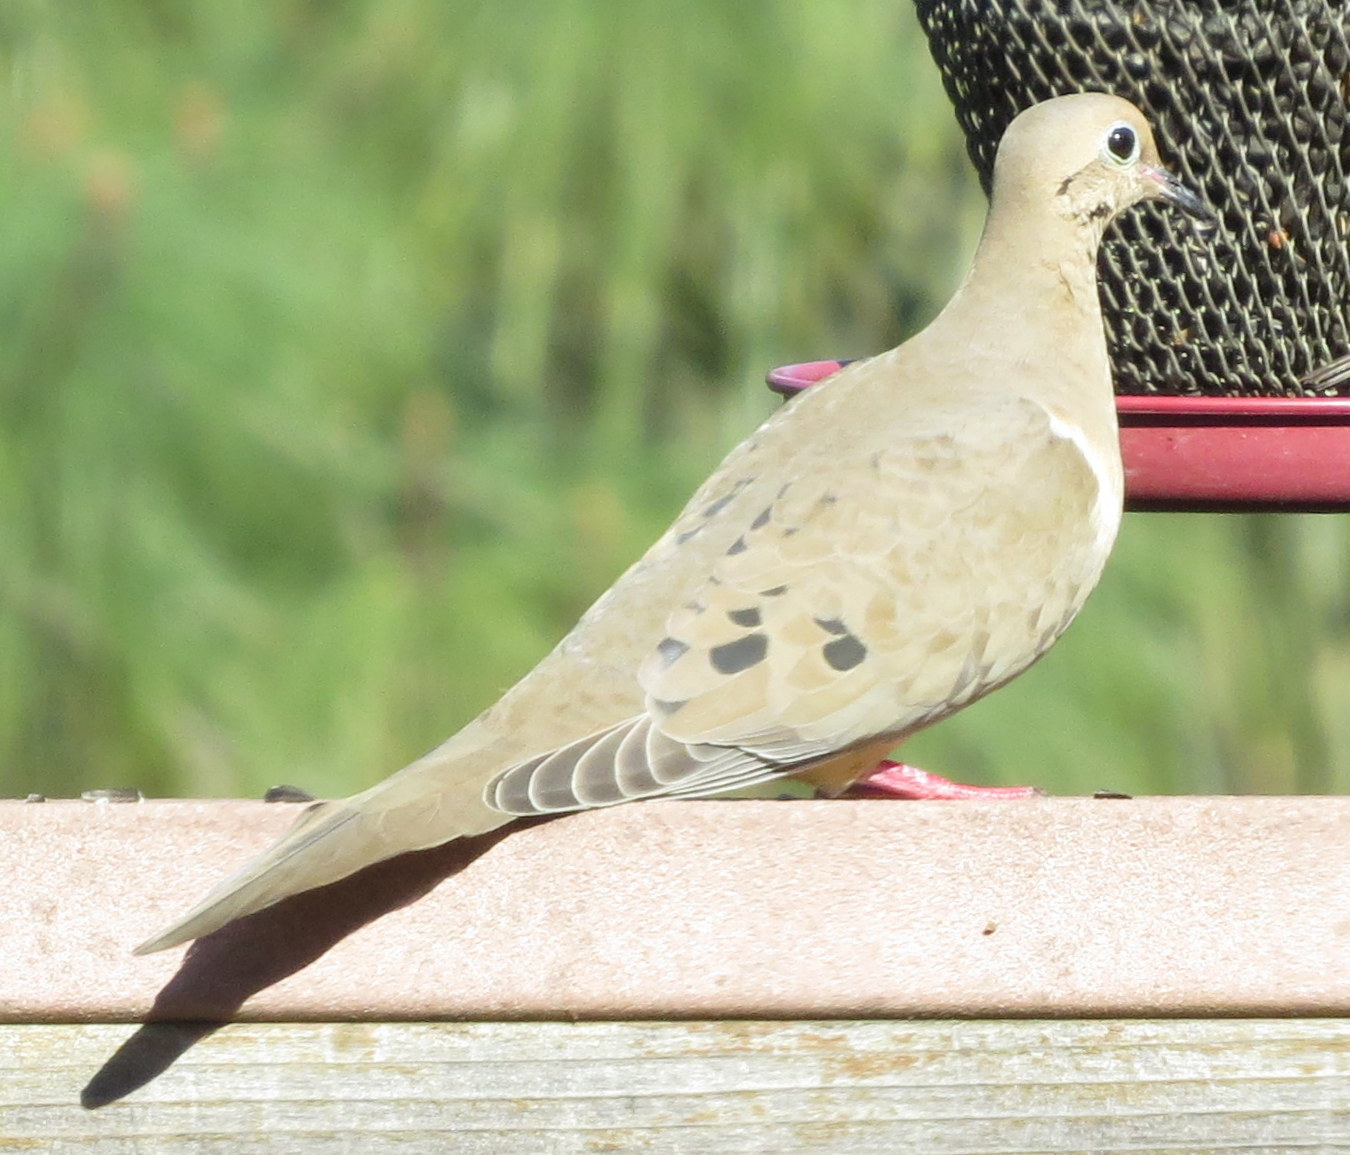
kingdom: Animalia
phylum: Chordata
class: Aves
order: Columbiformes
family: Columbidae
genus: Zenaida
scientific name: Zenaida macroura
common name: Mourning dove
